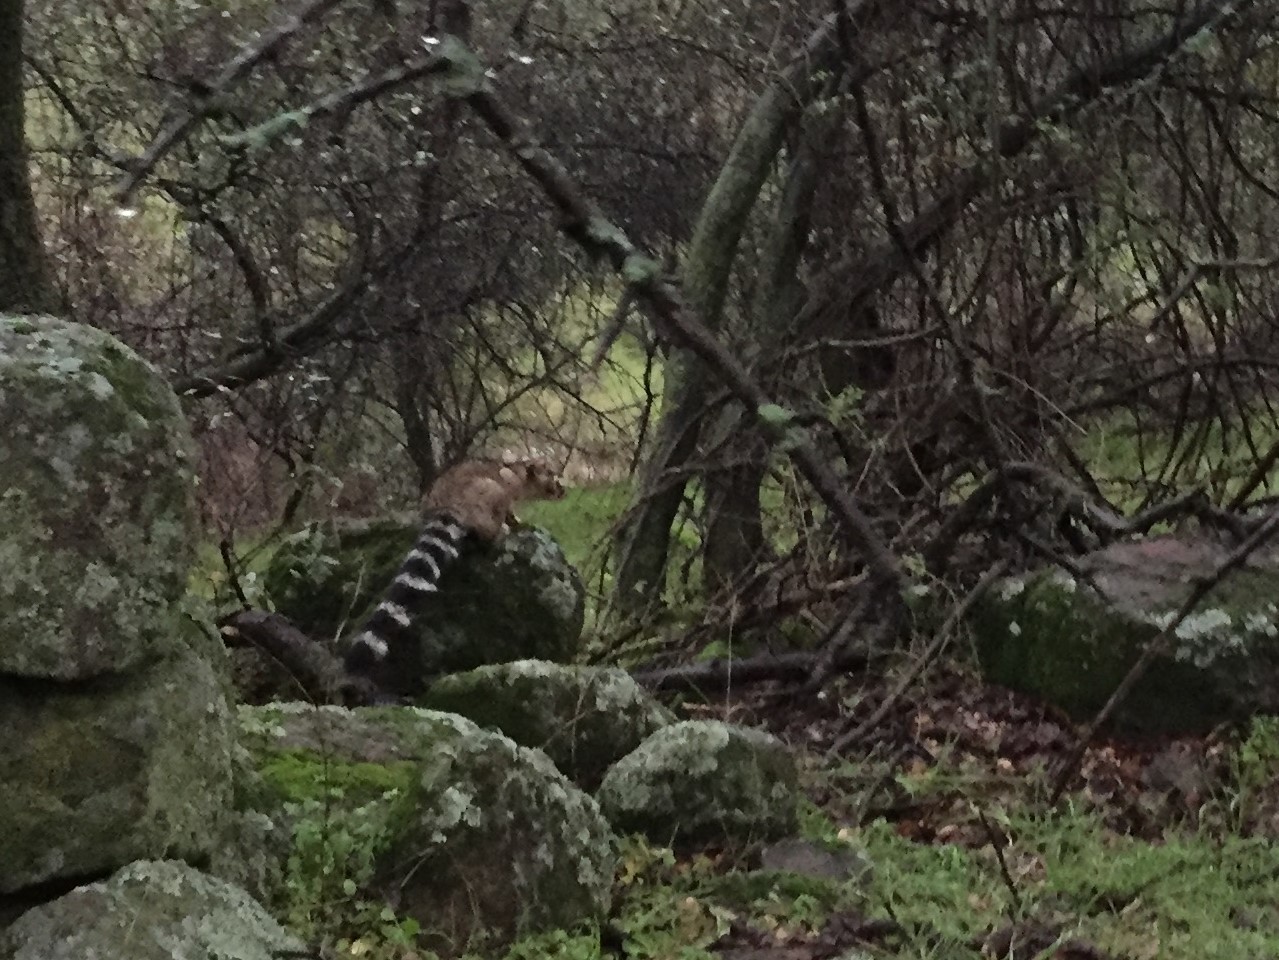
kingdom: Animalia
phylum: Chordata
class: Mammalia
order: Carnivora
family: Procyonidae
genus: Bassariscus
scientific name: Bassariscus astutus
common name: Ringtail
